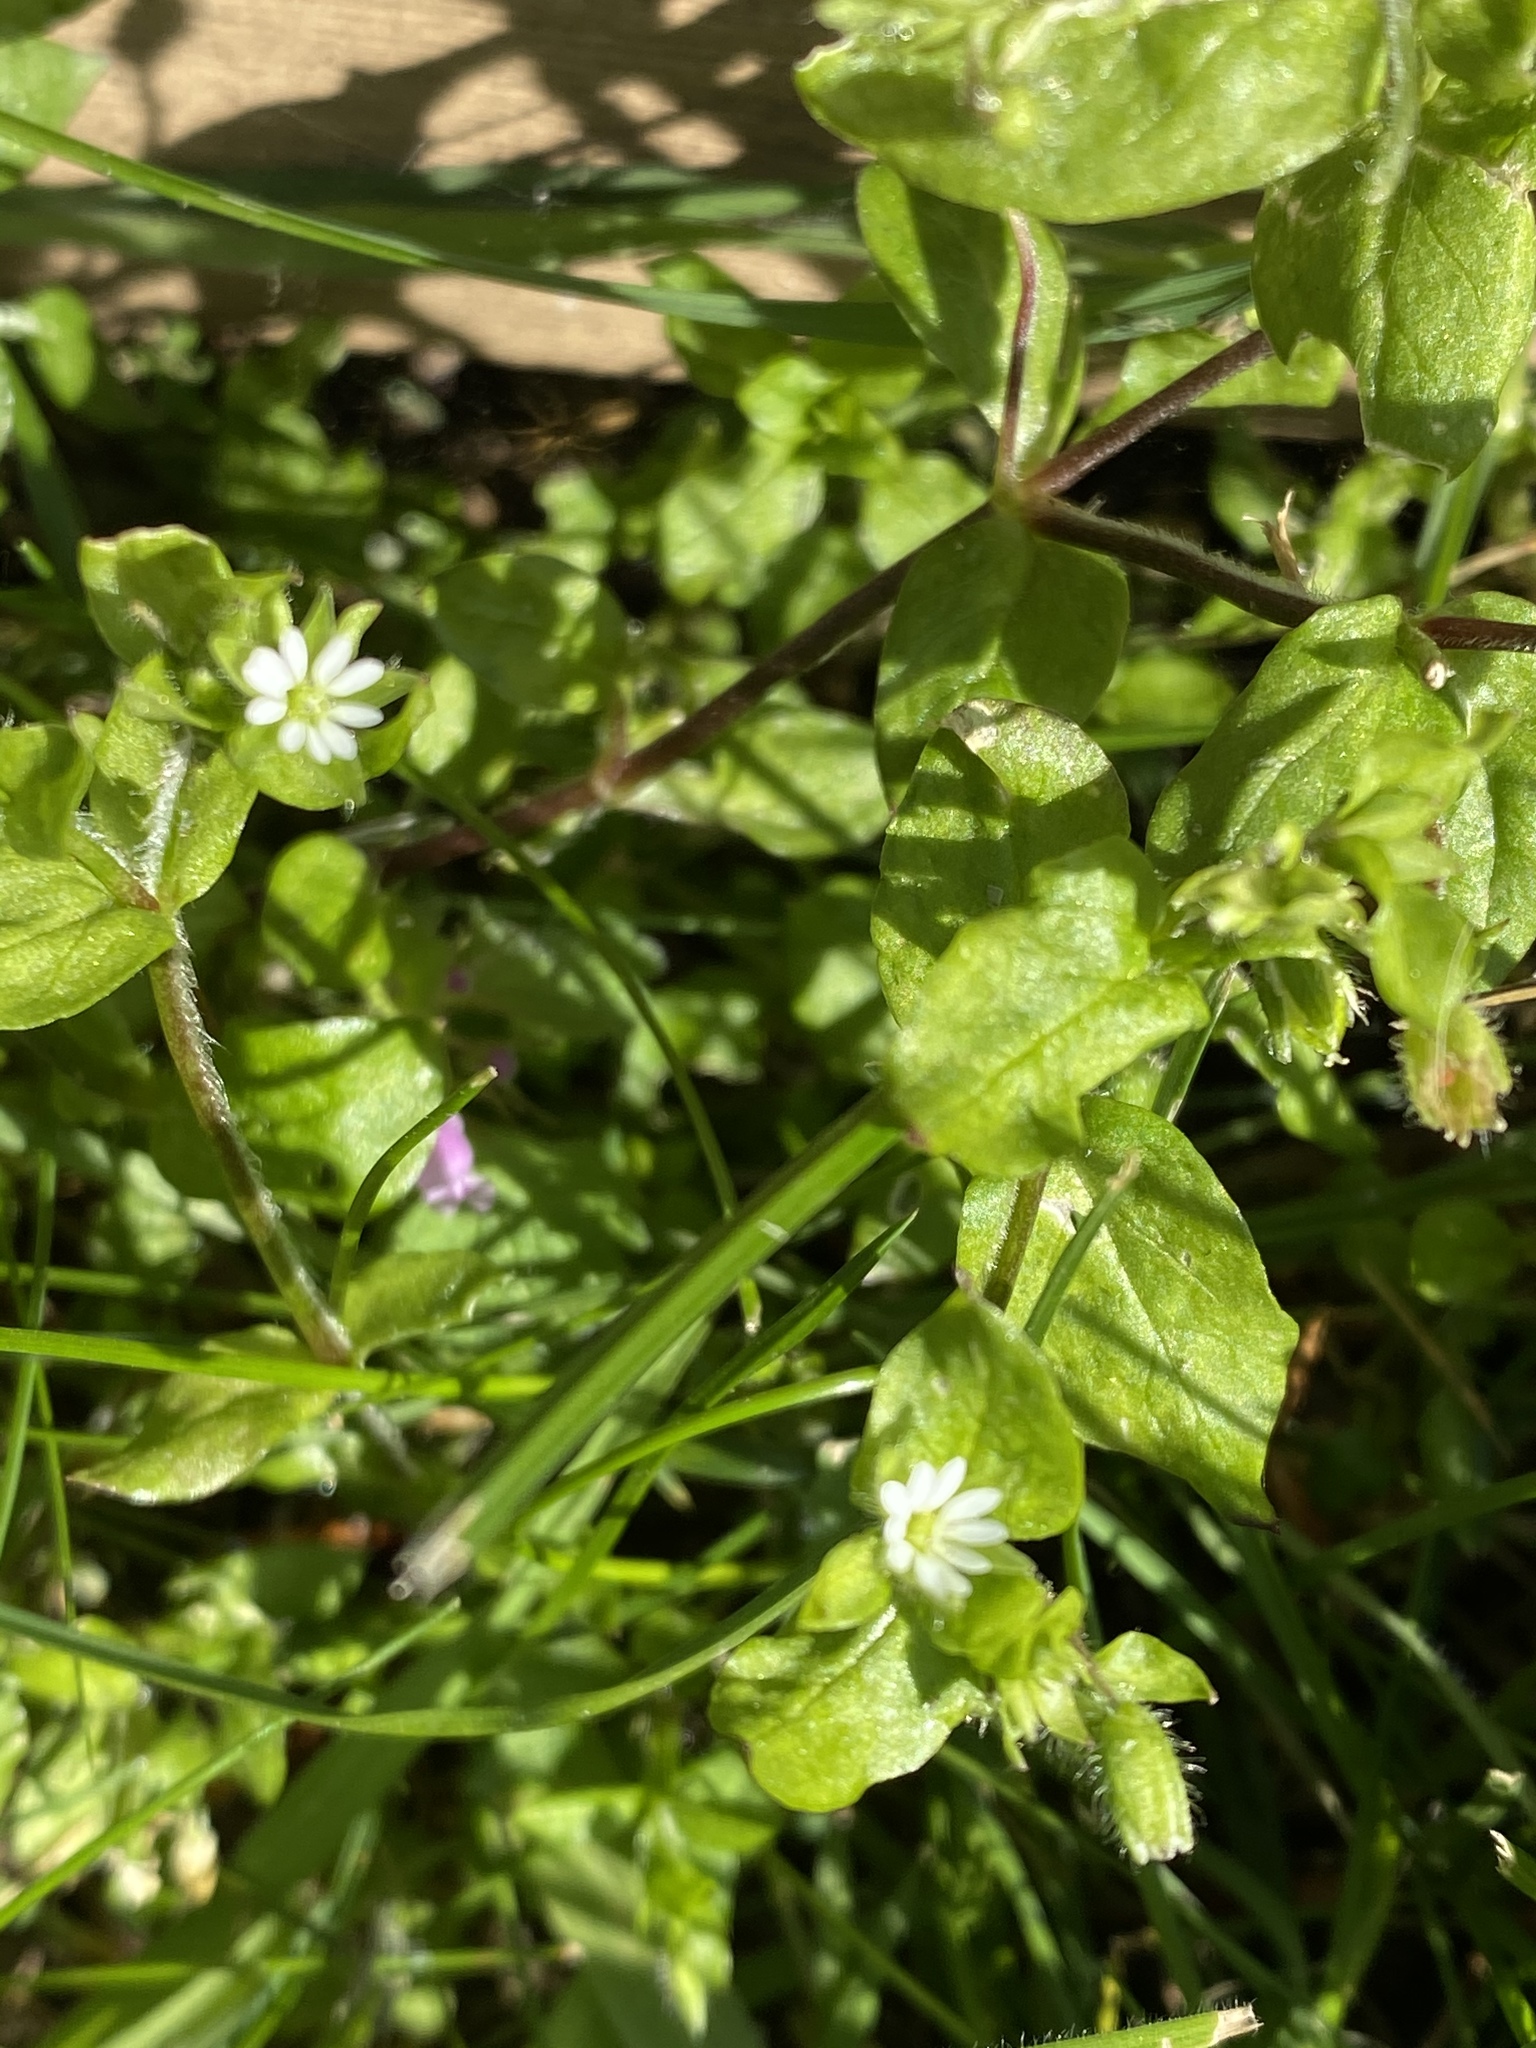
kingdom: Plantae
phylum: Tracheophyta
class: Magnoliopsida
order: Caryophyllales
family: Caryophyllaceae
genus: Stellaria
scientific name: Stellaria media
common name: Common chickweed
